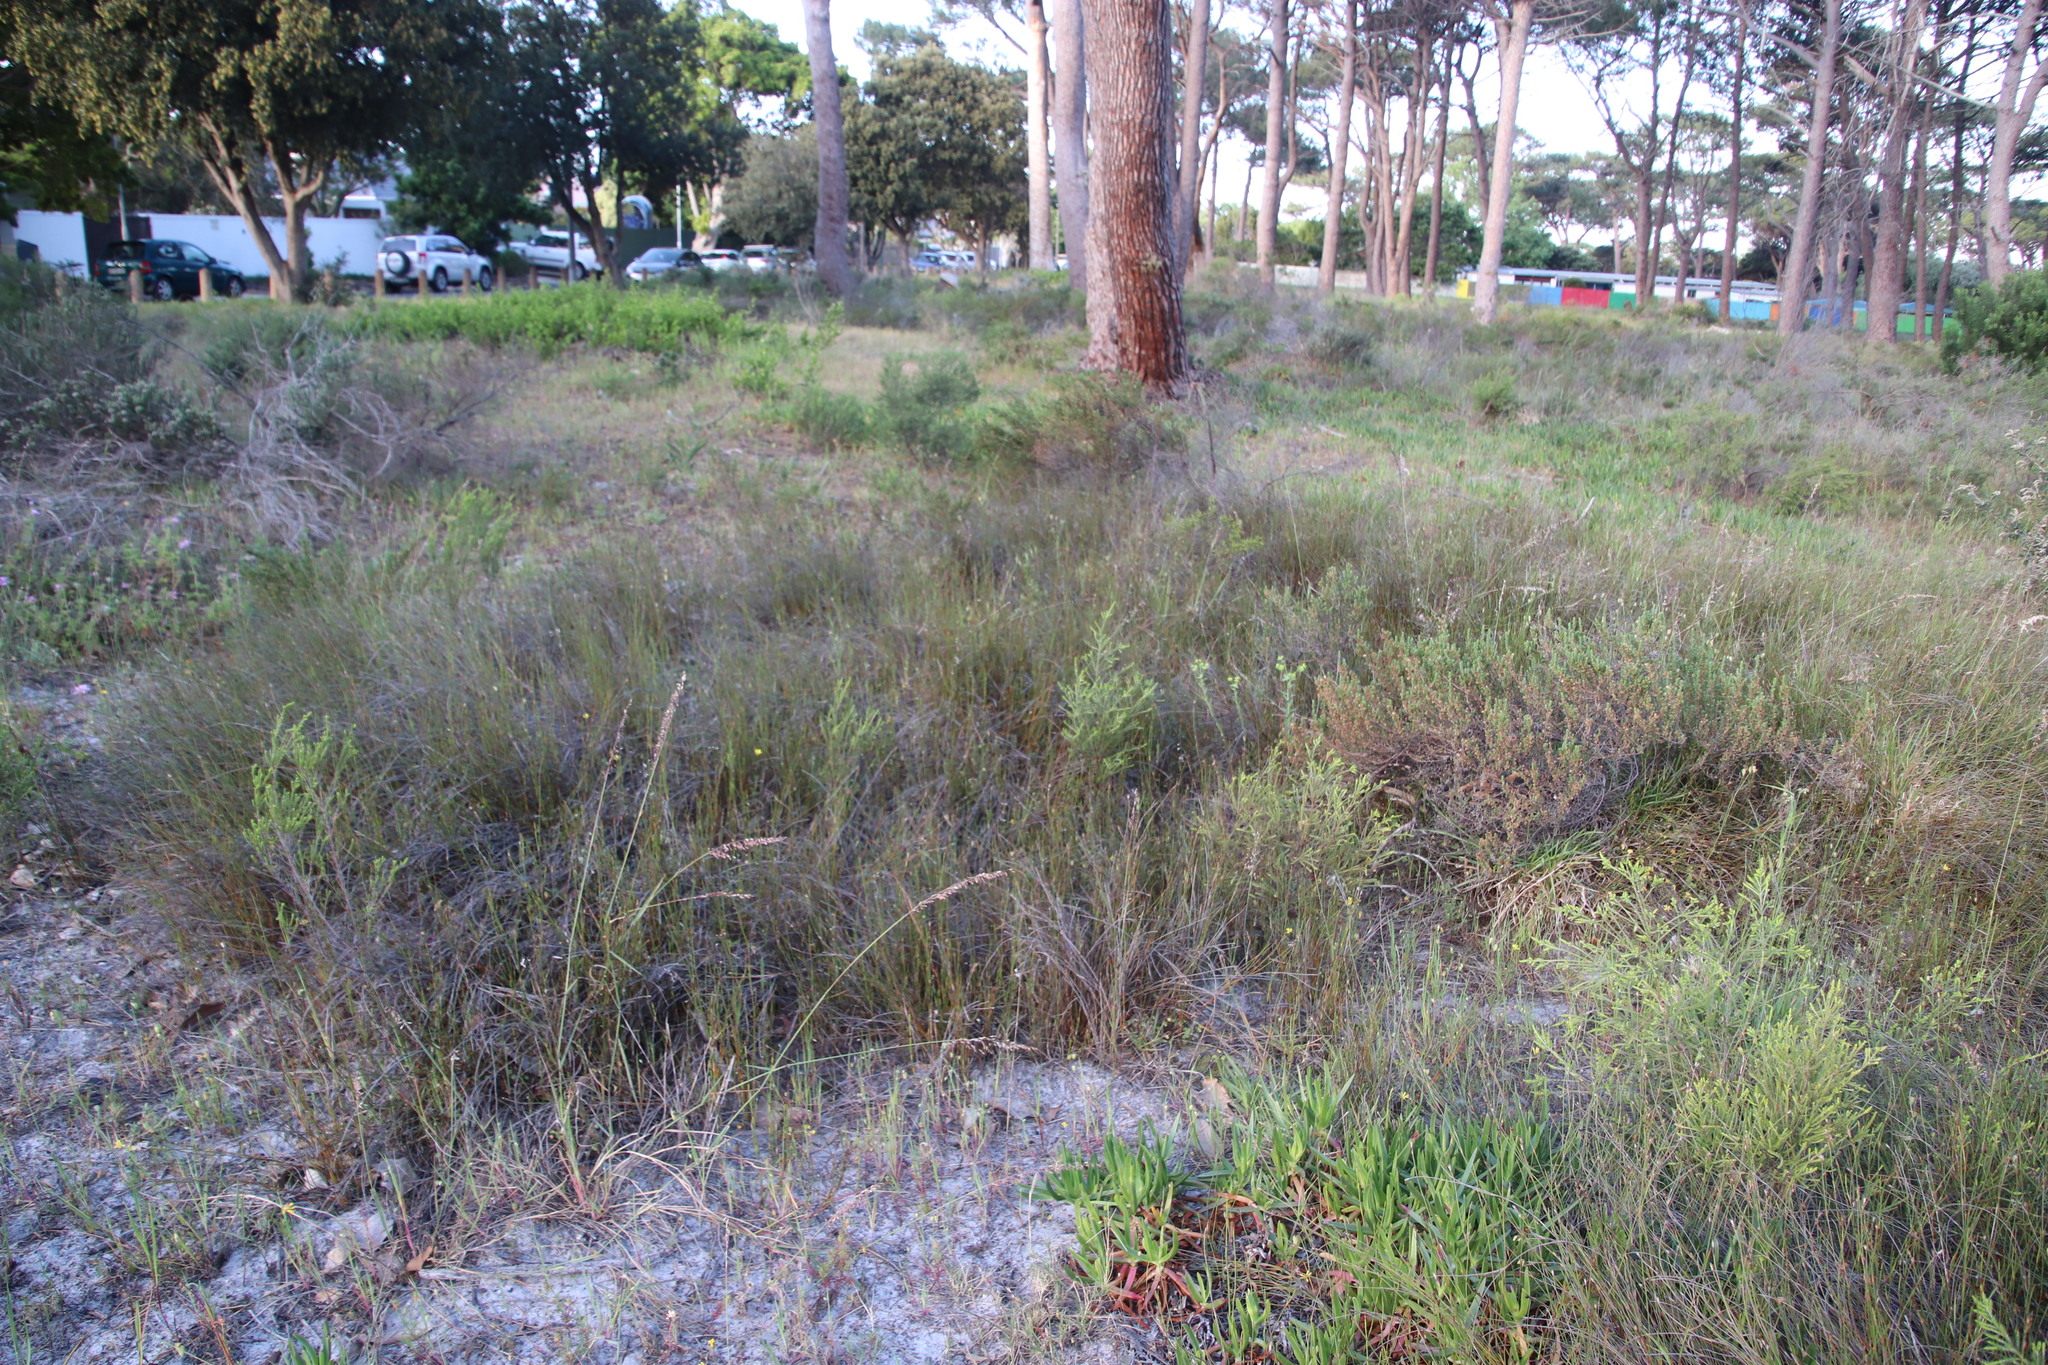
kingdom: Plantae
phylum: Tracheophyta
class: Liliopsida
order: Poales
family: Restionaceae
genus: Willdenowia
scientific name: Willdenowia sulcata
